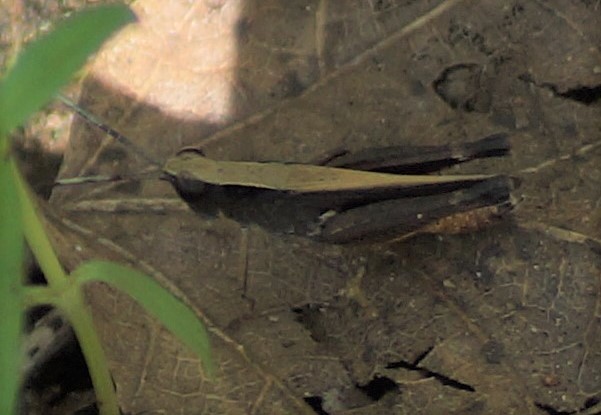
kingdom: Animalia
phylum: Arthropoda
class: Insecta
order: Orthoptera
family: Acrididae
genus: Rectitropis
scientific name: Rectitropis
